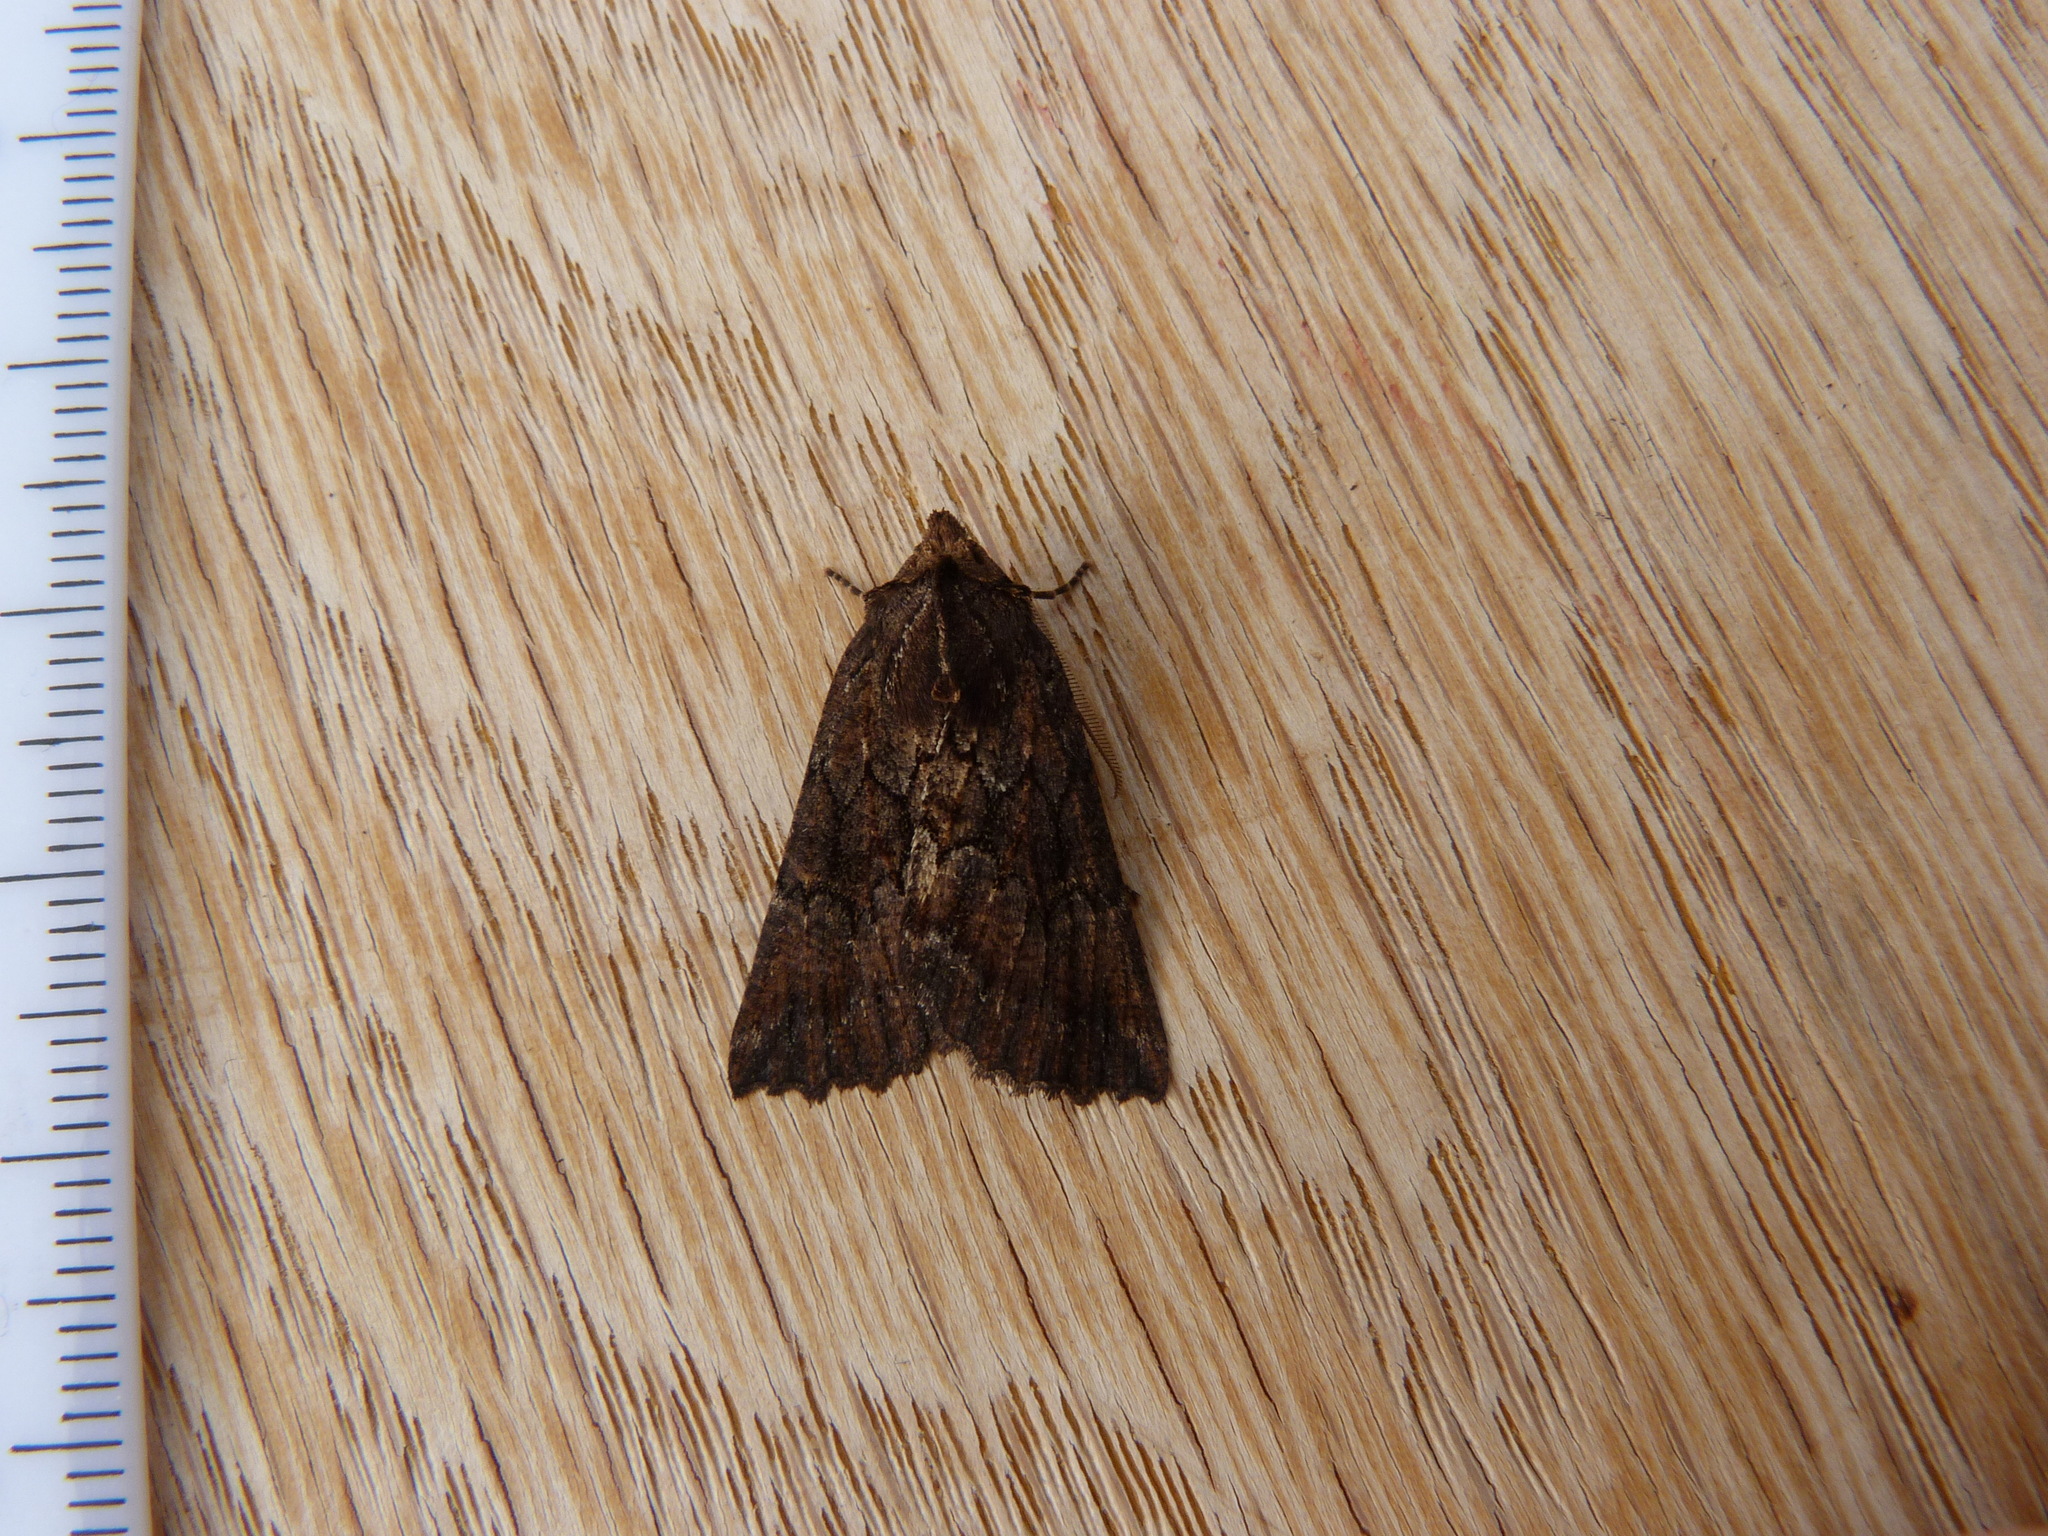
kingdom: Animalia
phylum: Arthropoda
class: Insecta
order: Lepidoptera
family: Geometridae
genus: Nisista
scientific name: Nisista serrata
